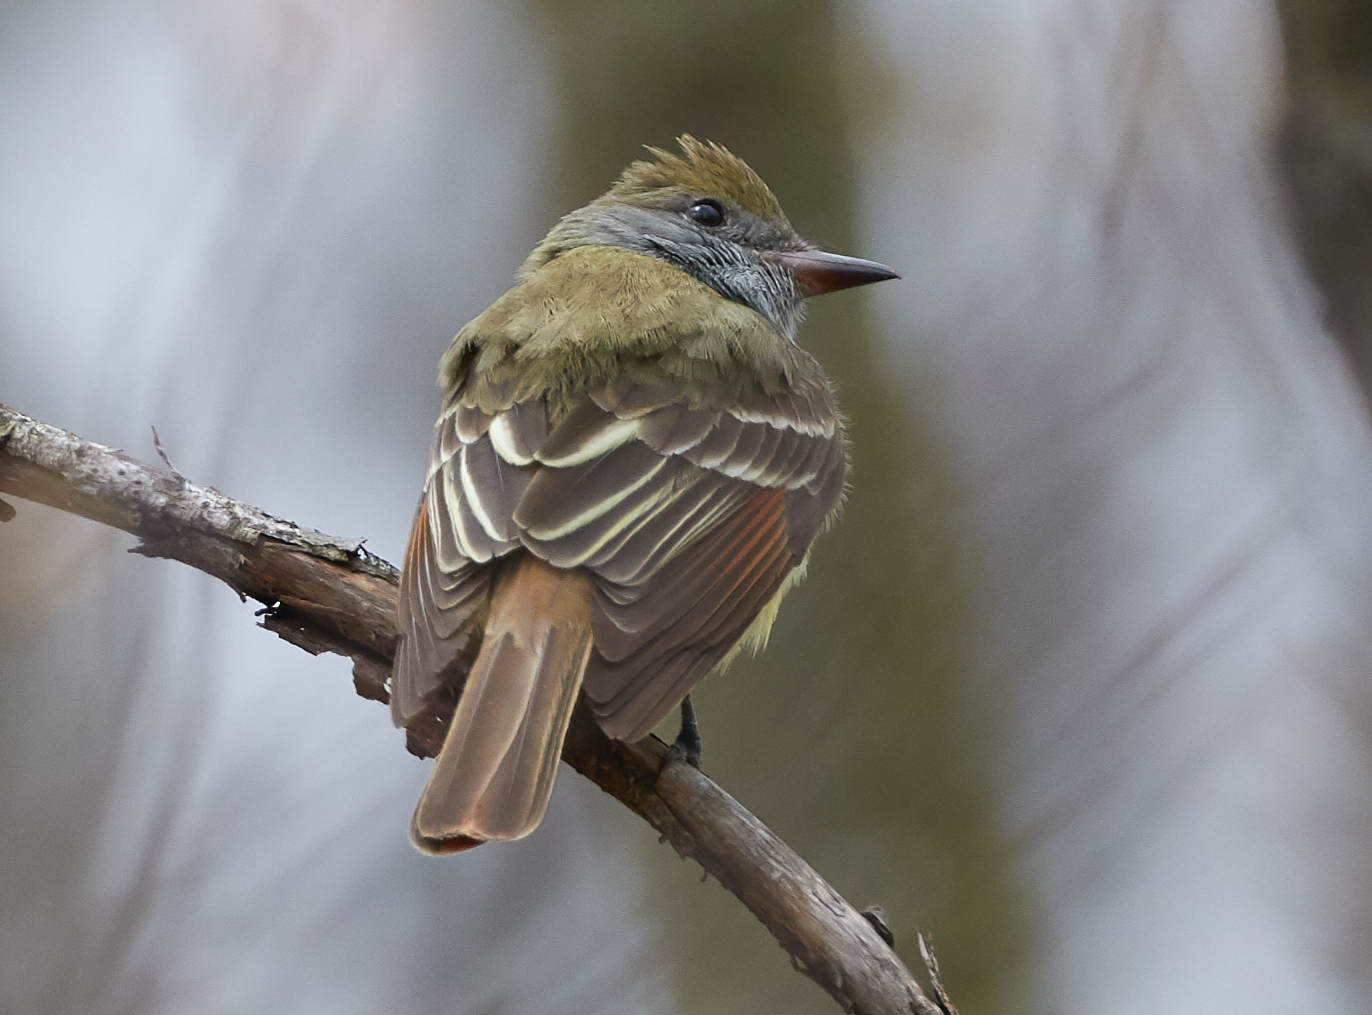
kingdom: Animalia
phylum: Chordata
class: Aves
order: Passeriformes
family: Tyrannidae
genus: Myiarchus
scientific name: Myiarchus crinitus
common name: Great crested flycatcher
